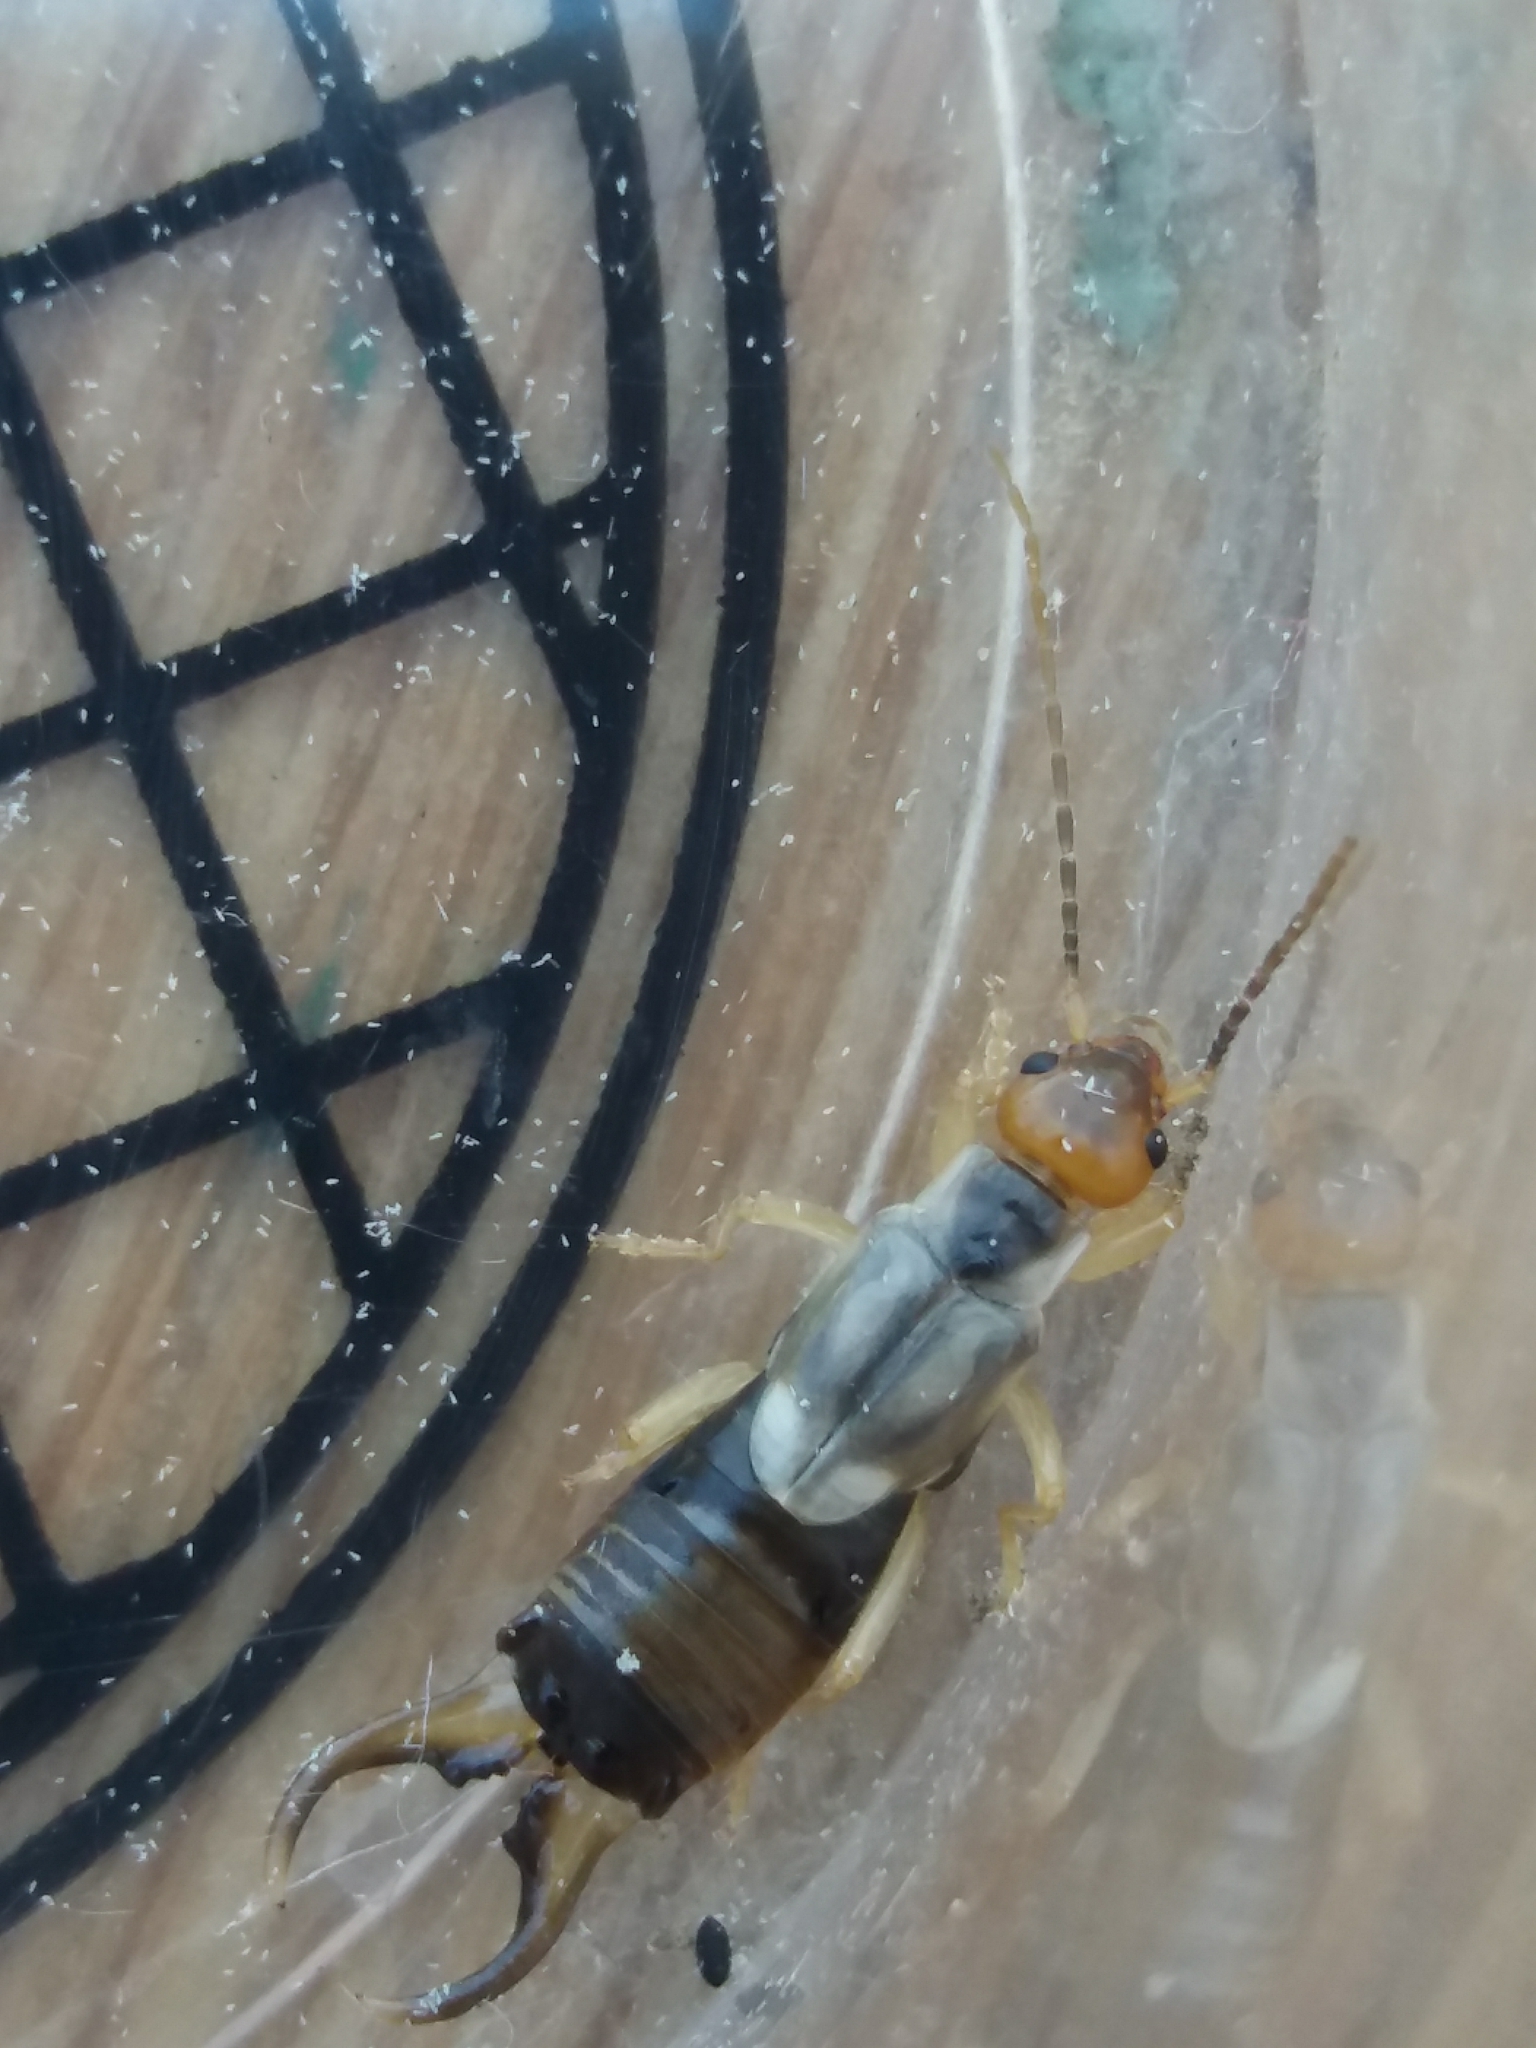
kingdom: Animalia
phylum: Arthropoda
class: Insecta
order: Dermaptera
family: Forficulidae
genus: Forficula
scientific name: Forficula
